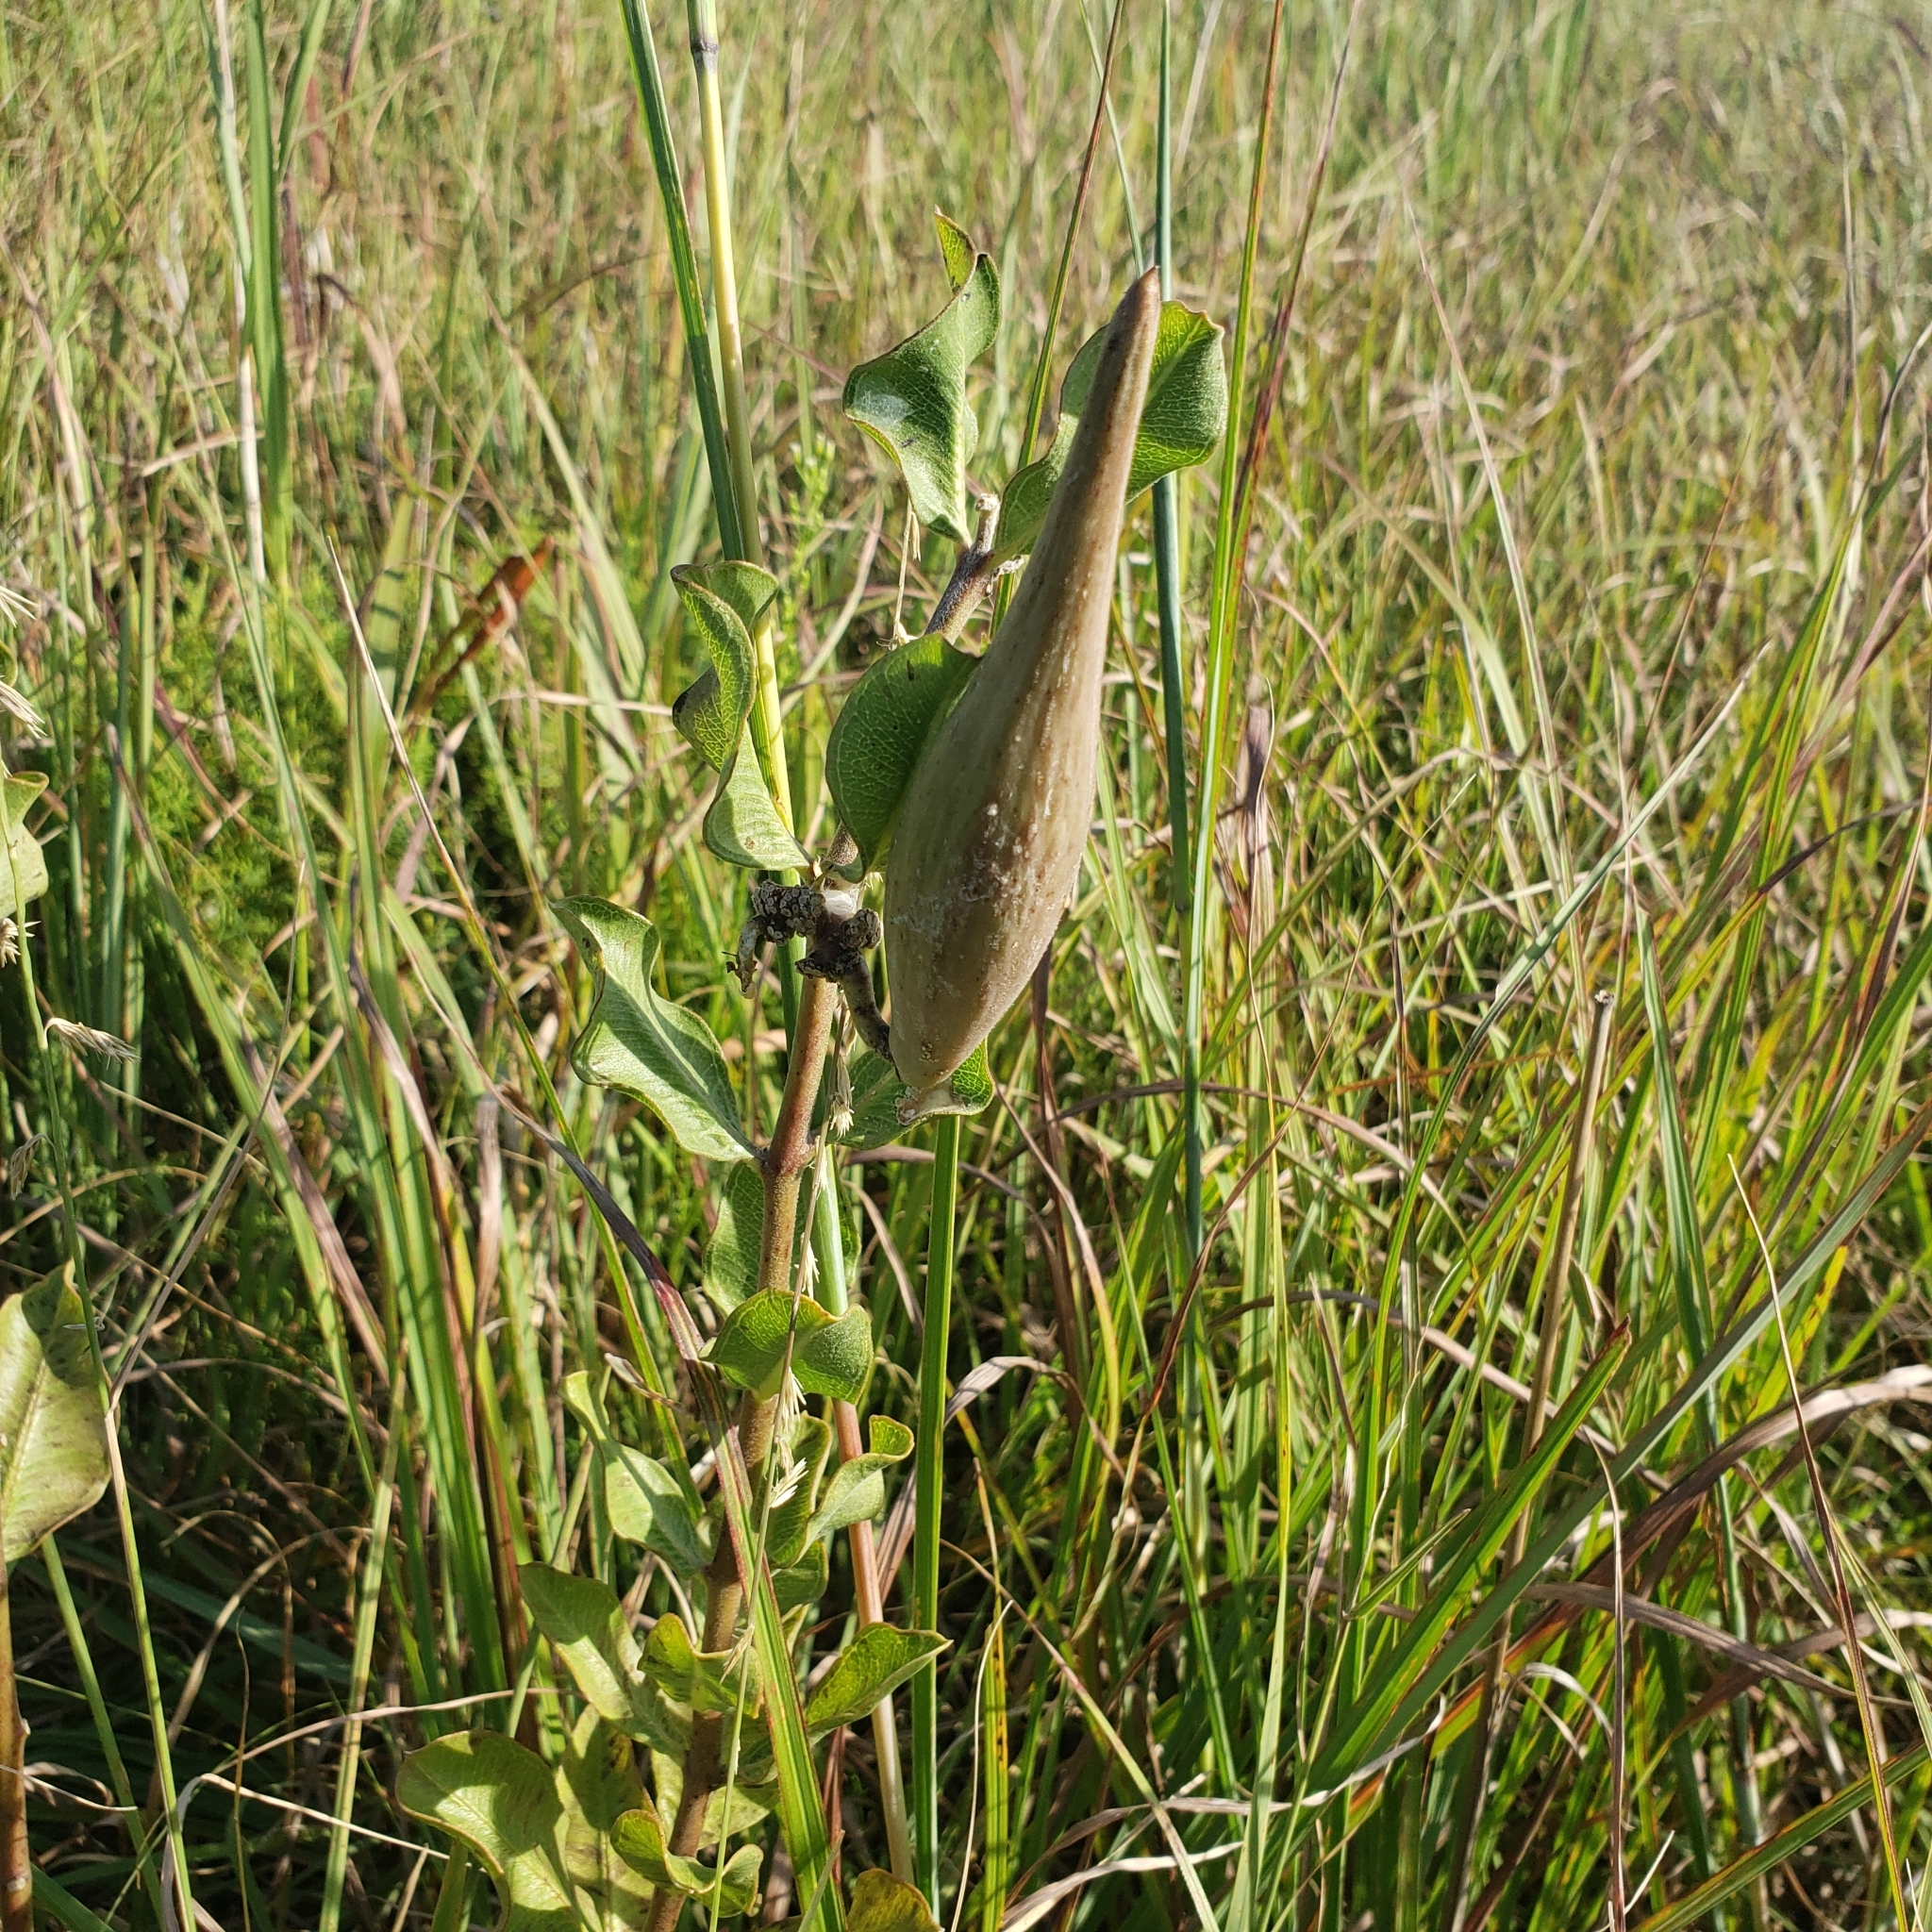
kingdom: Plantae
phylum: Tracheophyta
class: Magnoliopsida
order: Gentianales
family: Apocynaceae
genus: Asclepias
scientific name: Asclepias viridiflora
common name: Green comet milkweed
